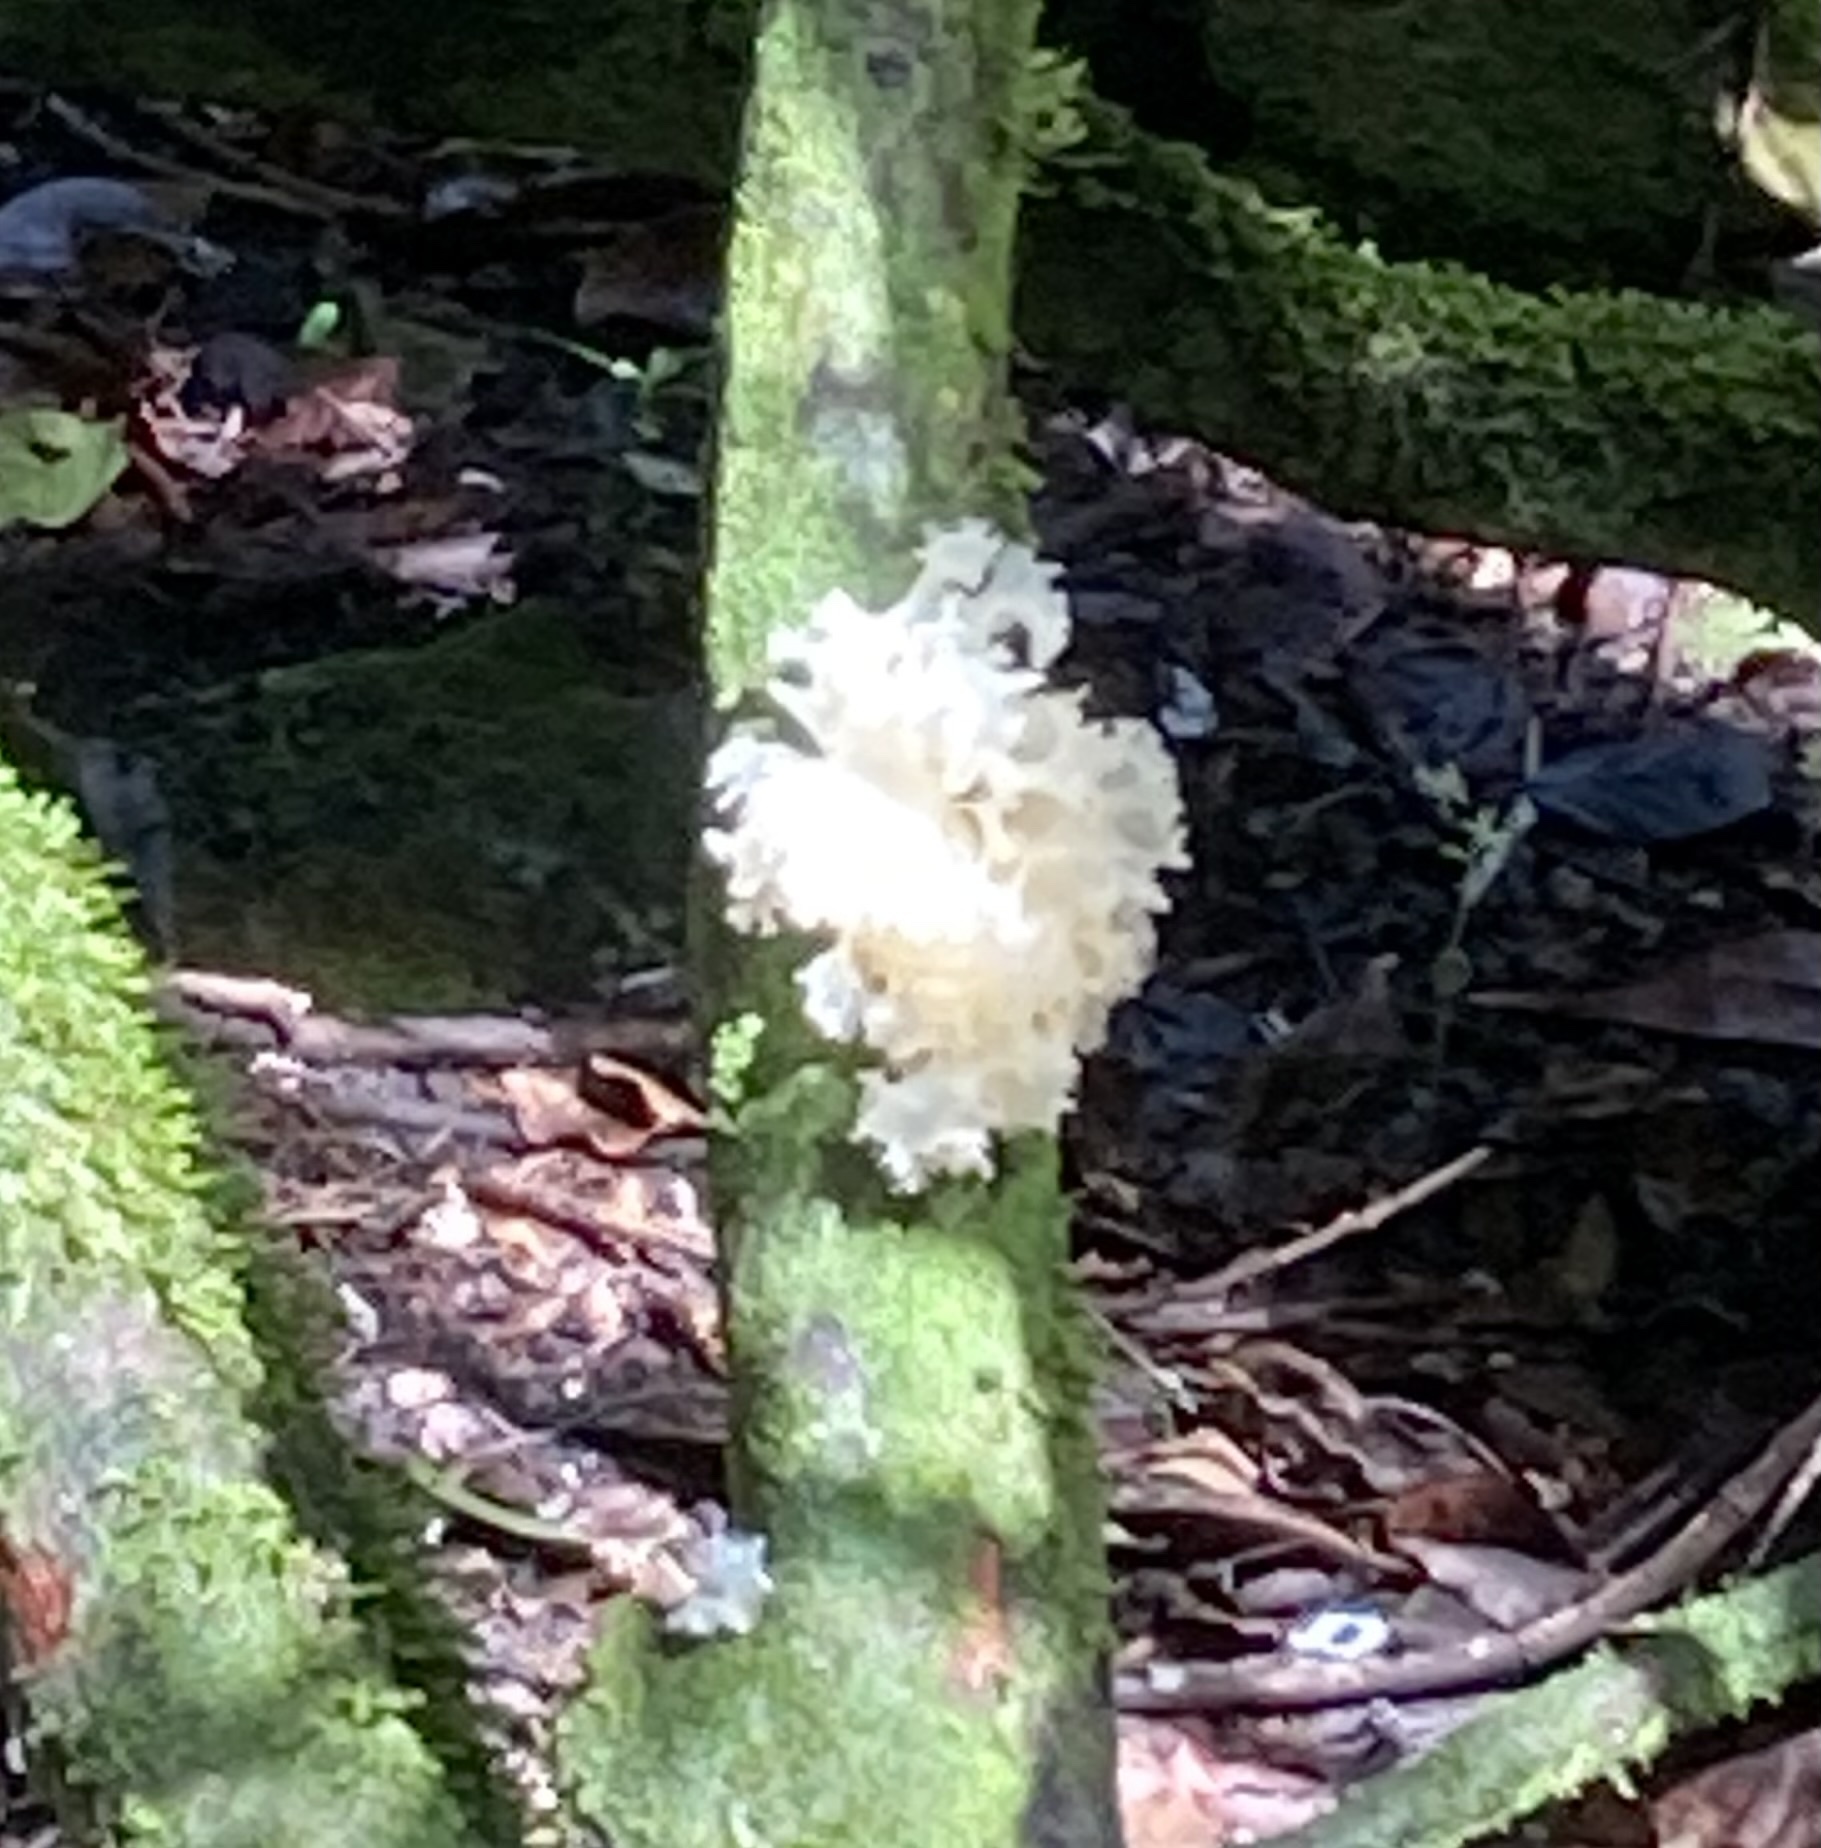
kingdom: Fungi
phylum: Basidiomycota
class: Tremellomycetes
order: Tremellales
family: Tremellaceae
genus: Tremella
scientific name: Tremella fuciformis
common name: Snow fungus
